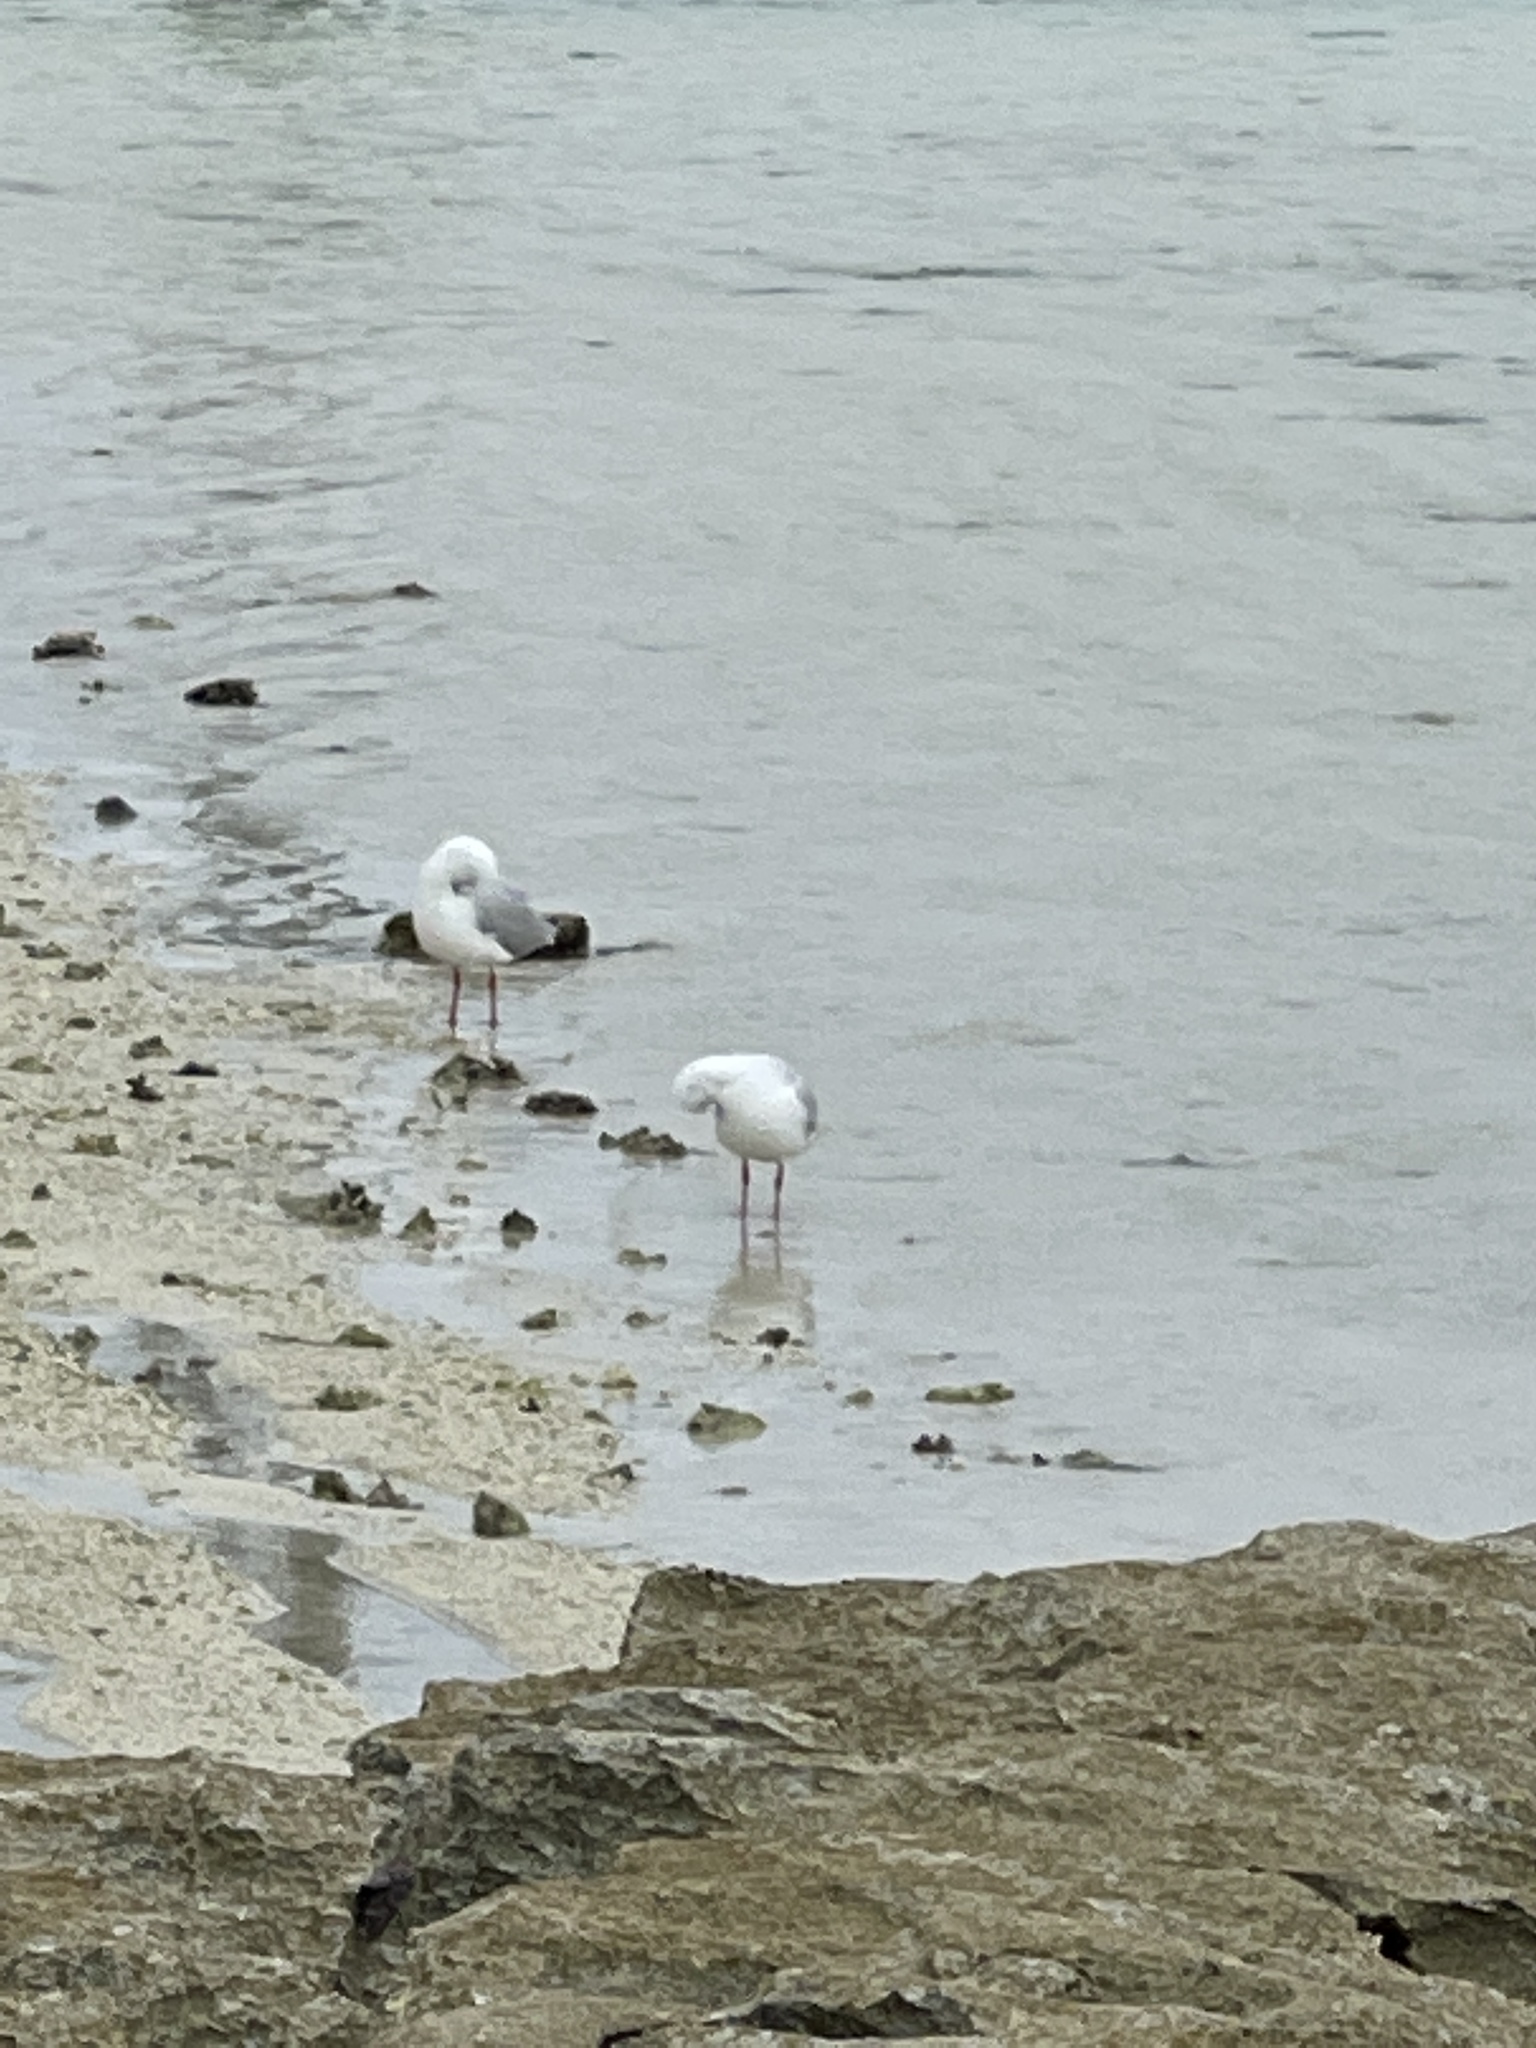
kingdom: Animalia
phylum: Chordata
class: Aves
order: Charadriiformes
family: Laridae
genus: Chroicocephalus
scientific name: Chroicocephalus novaehollandiae
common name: Silver gull
